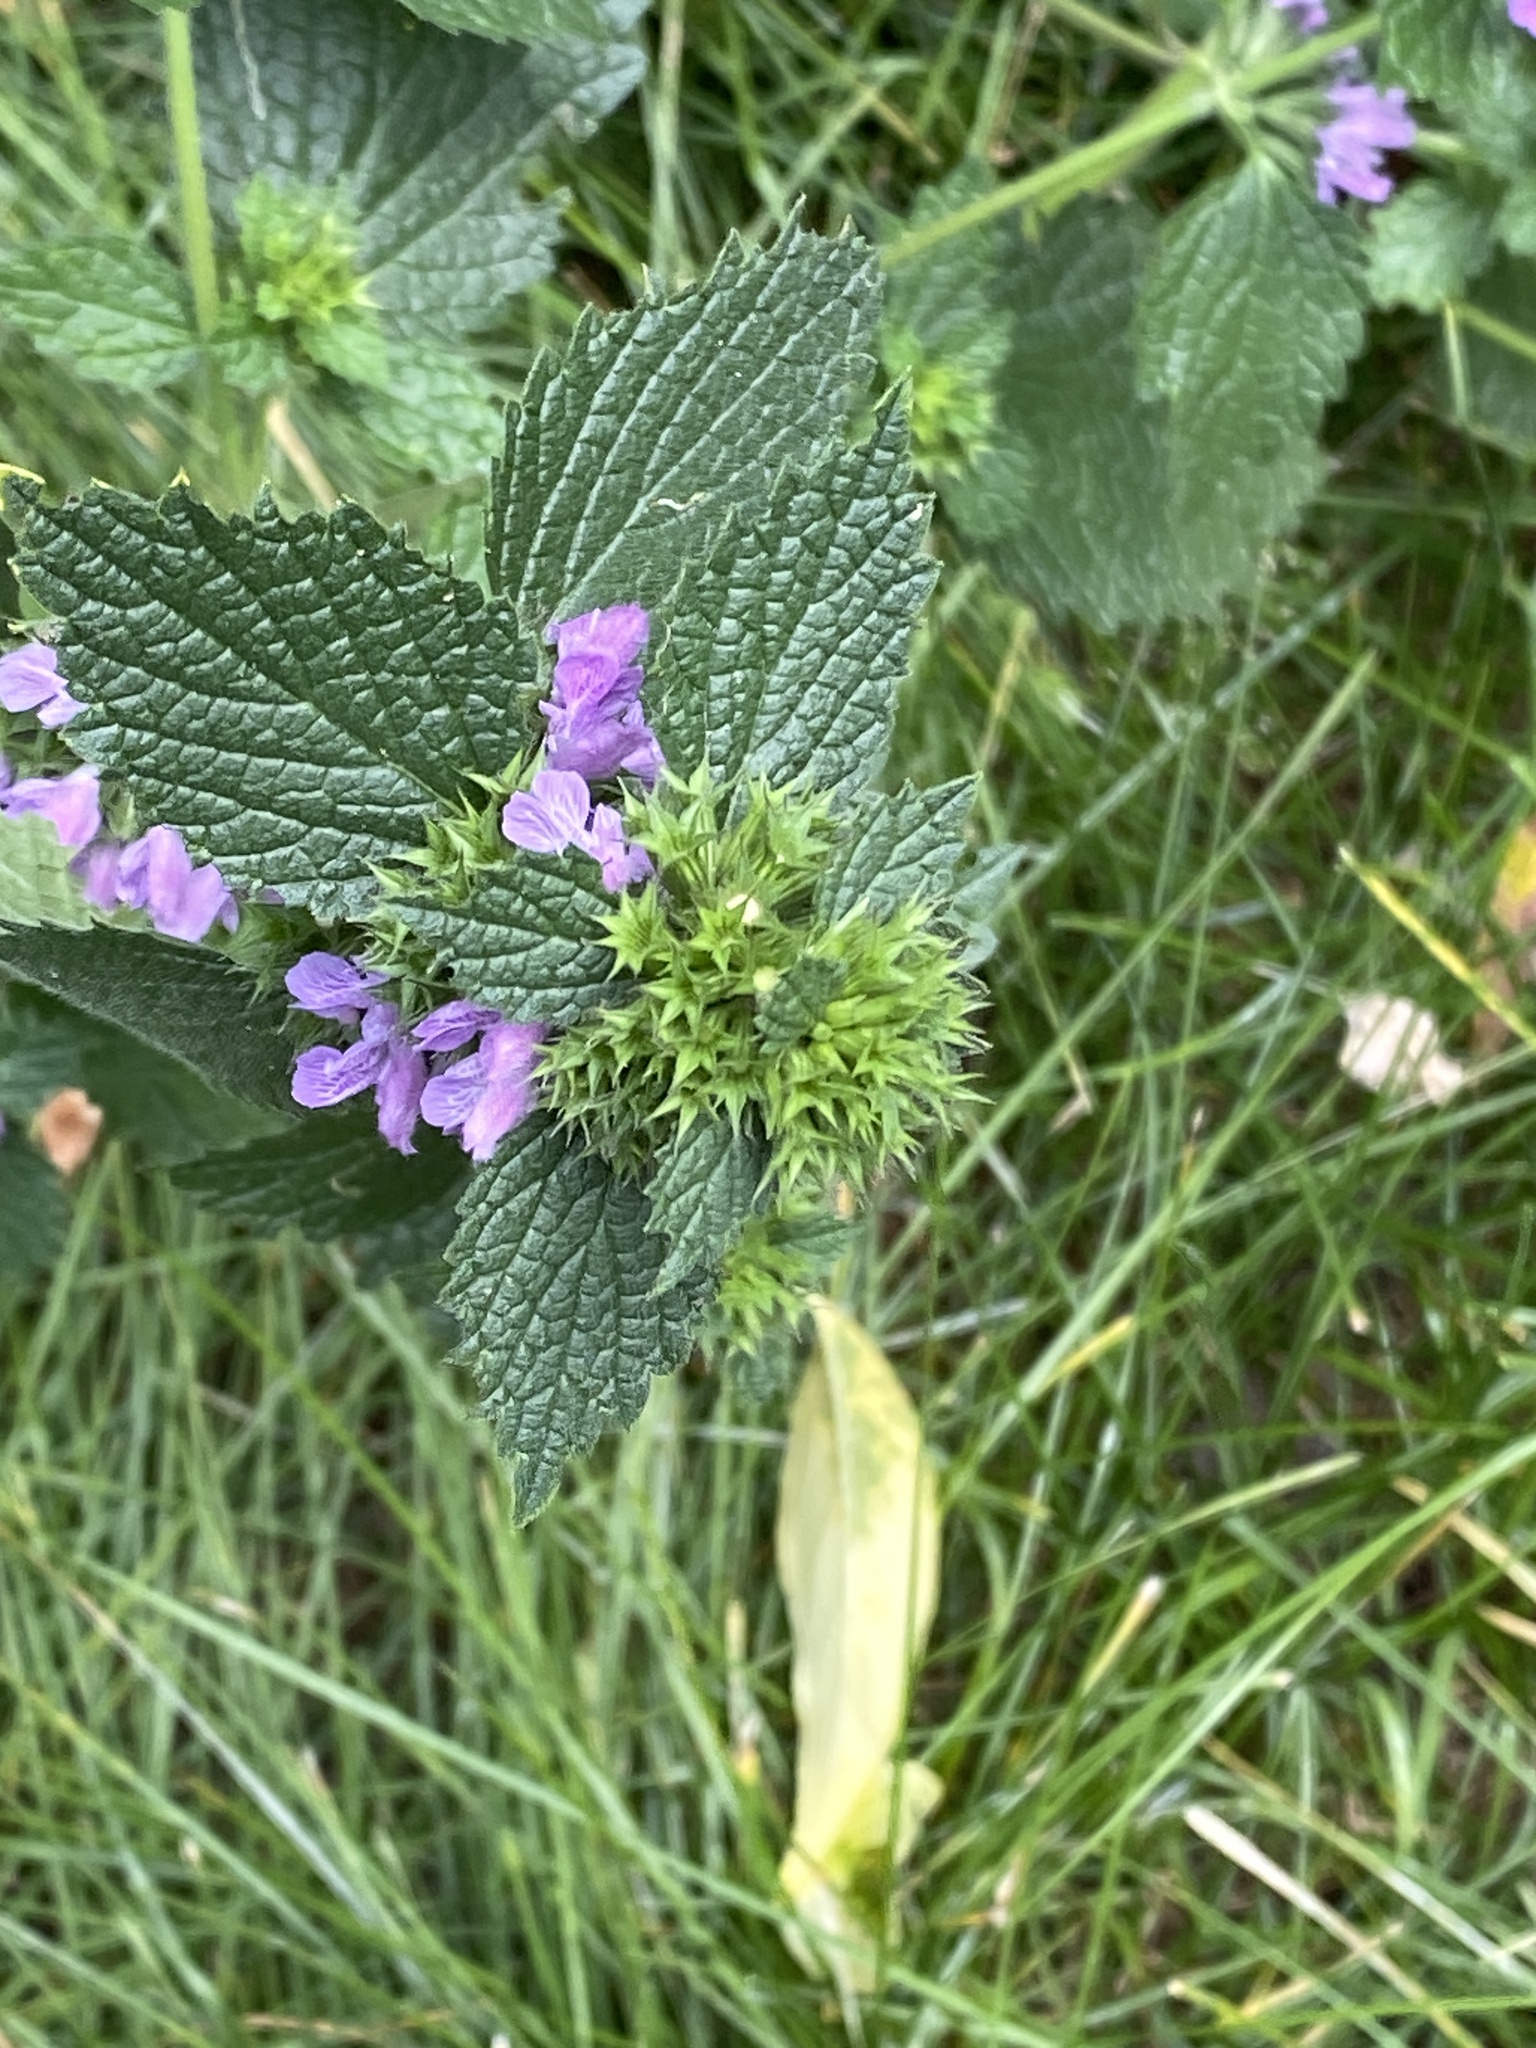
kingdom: Plantae
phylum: Tracheophyta
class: Magnoliopsida
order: Lamiales
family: Lamiaceae
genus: Ballota
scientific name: Ballota nigra
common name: Black horehound
